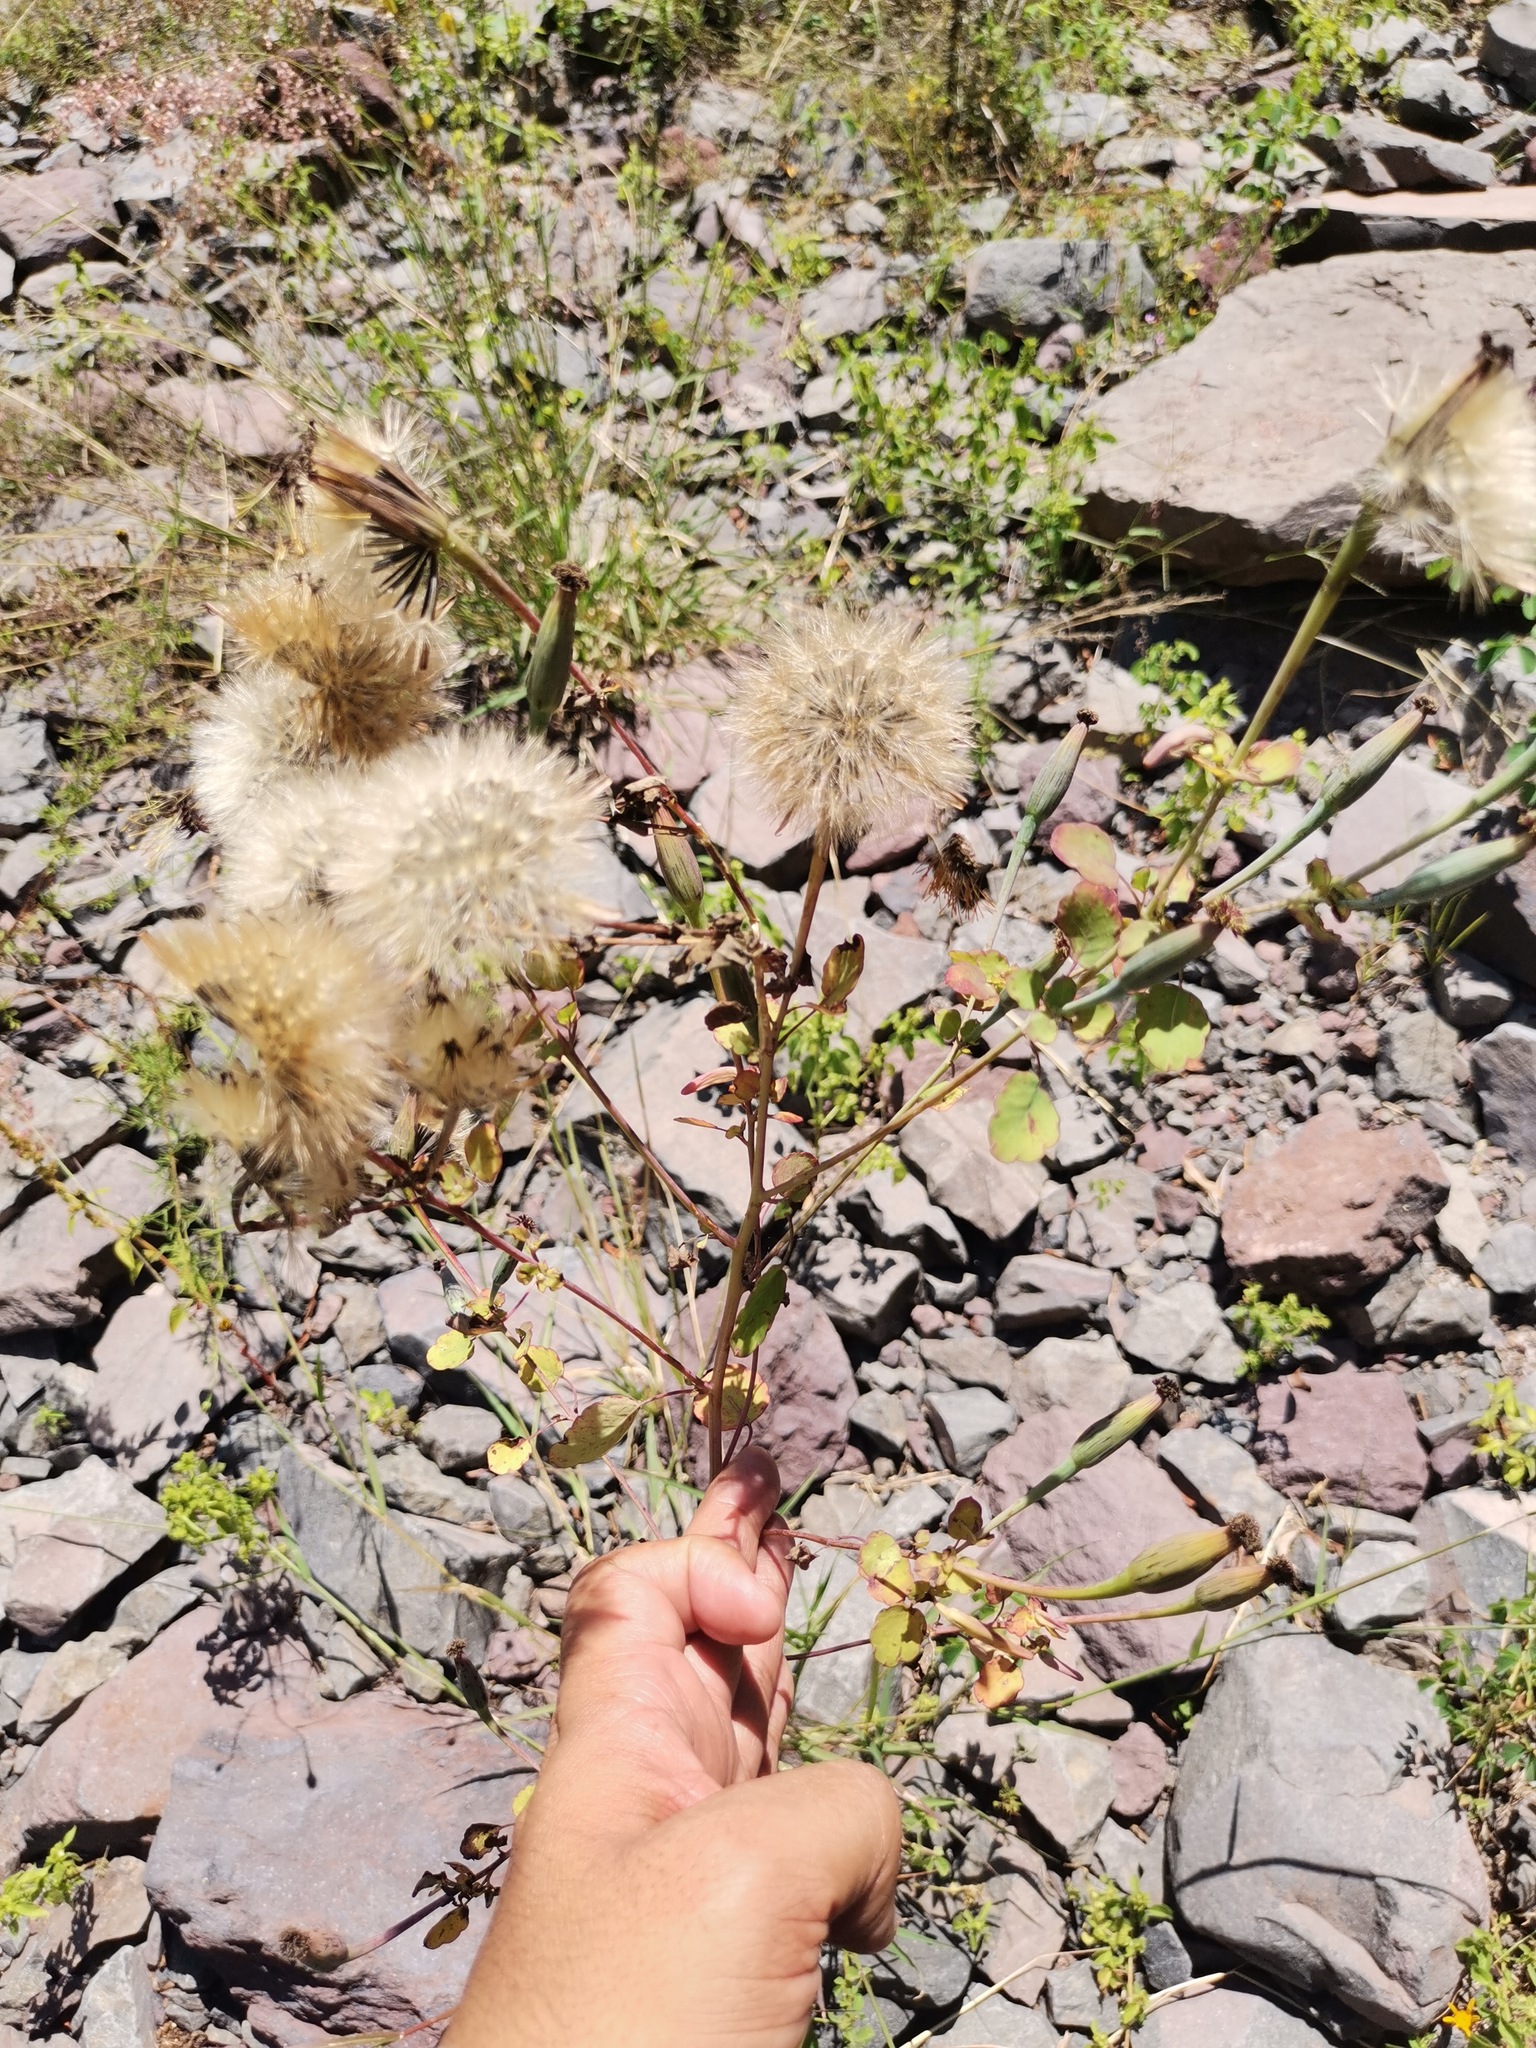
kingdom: Plantae
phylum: Tracheophyta
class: Magnoliopsida
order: Asterales
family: Asteraceae
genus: Porophyllum
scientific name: Porophyllum ruderale
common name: Yerba porosa
